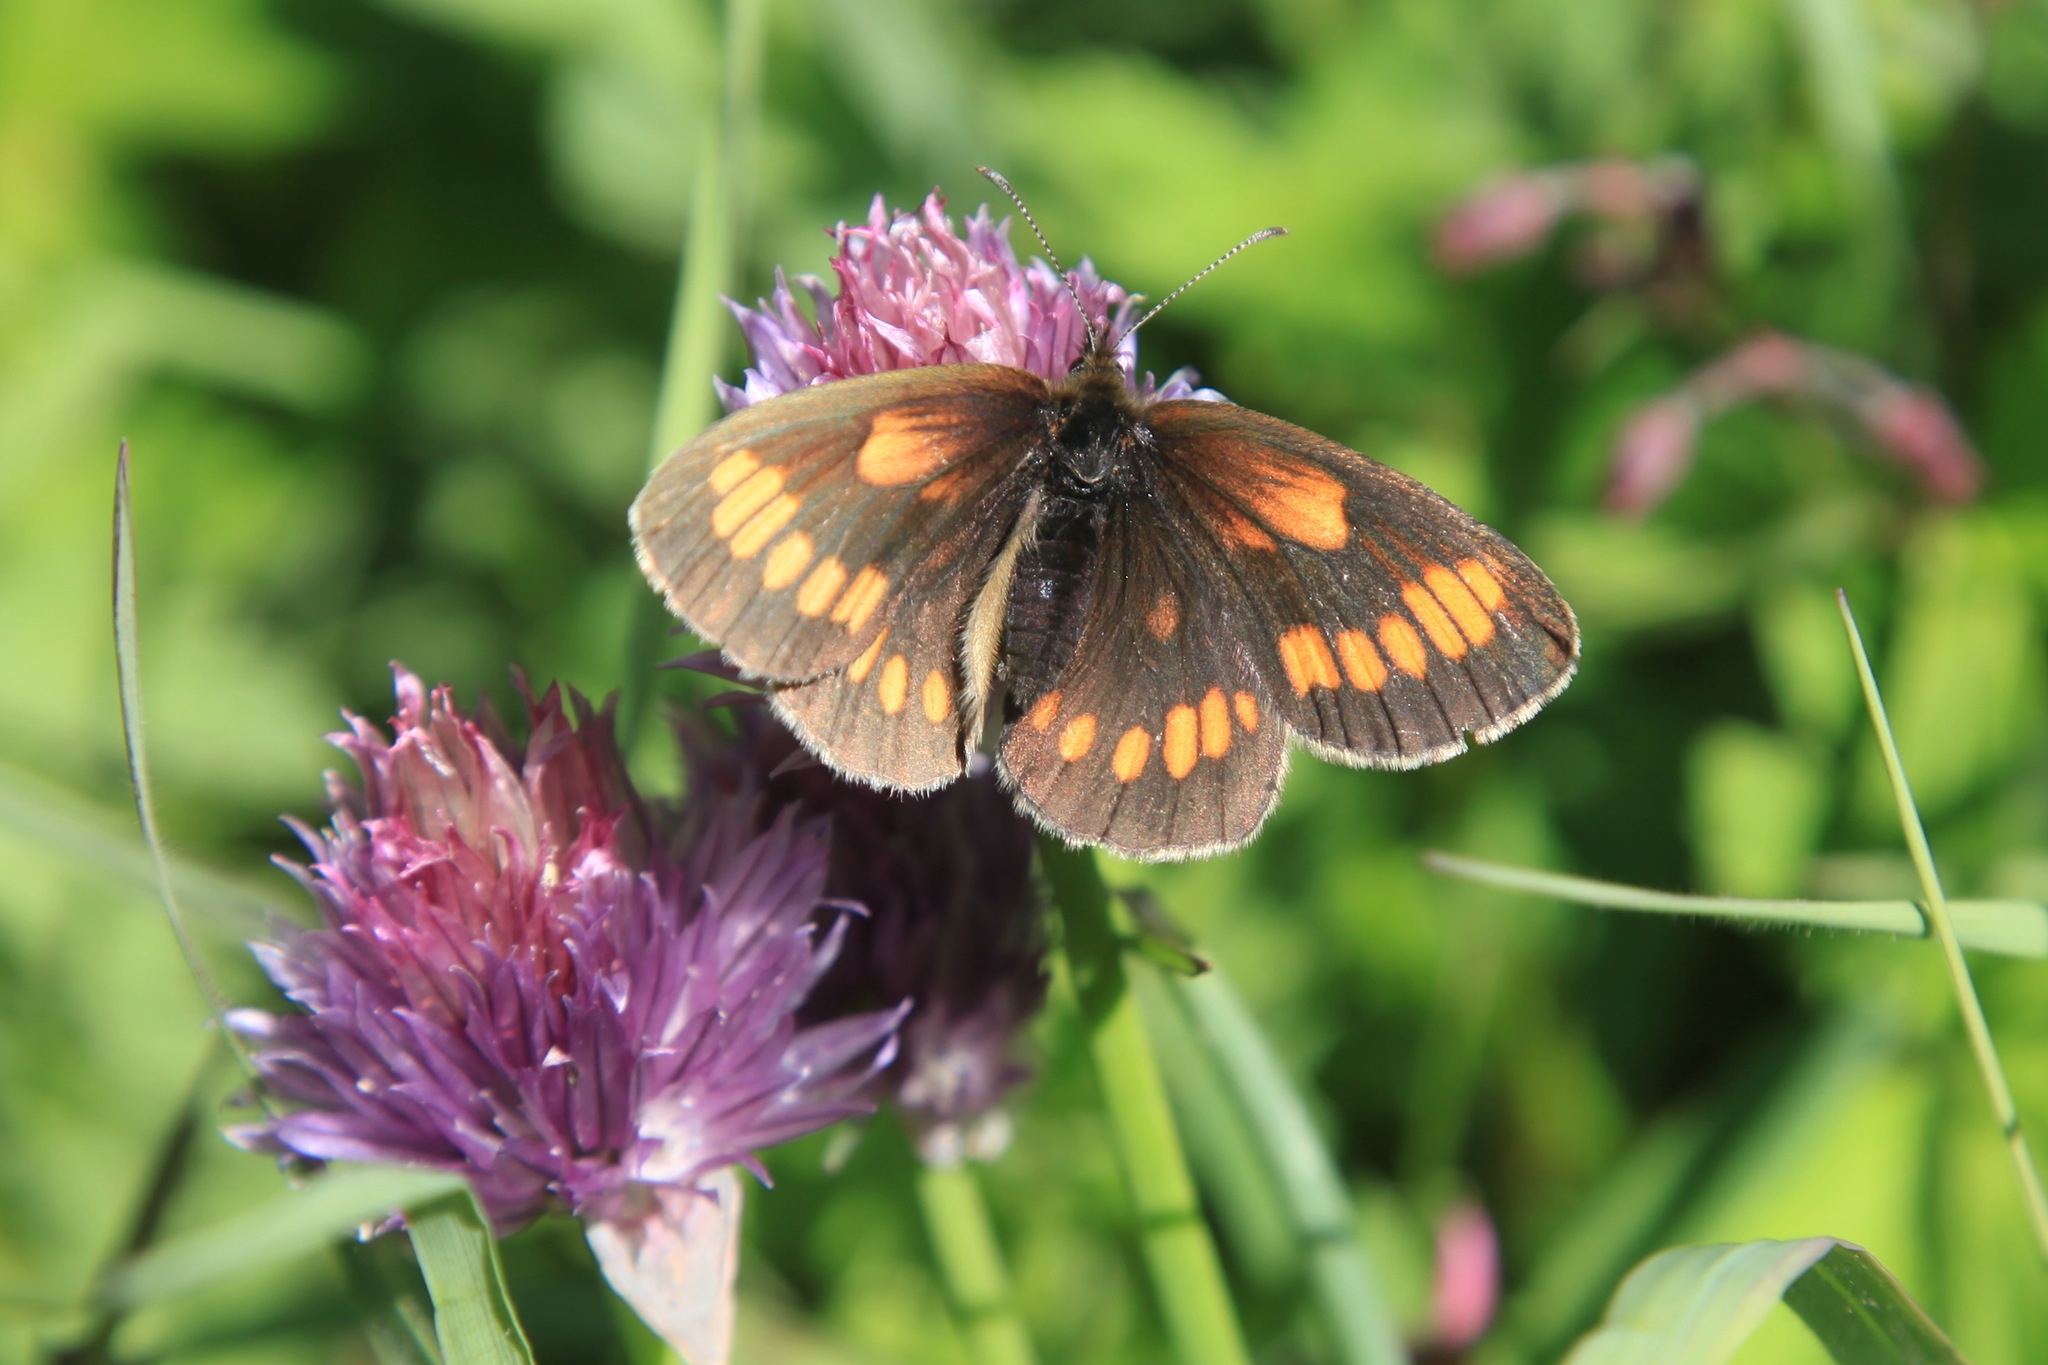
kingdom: Animalia
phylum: Arthropoda
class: Insecta
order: Lepidoptera
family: Nymphalidae
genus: Erebia
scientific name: Erebia maurisius
